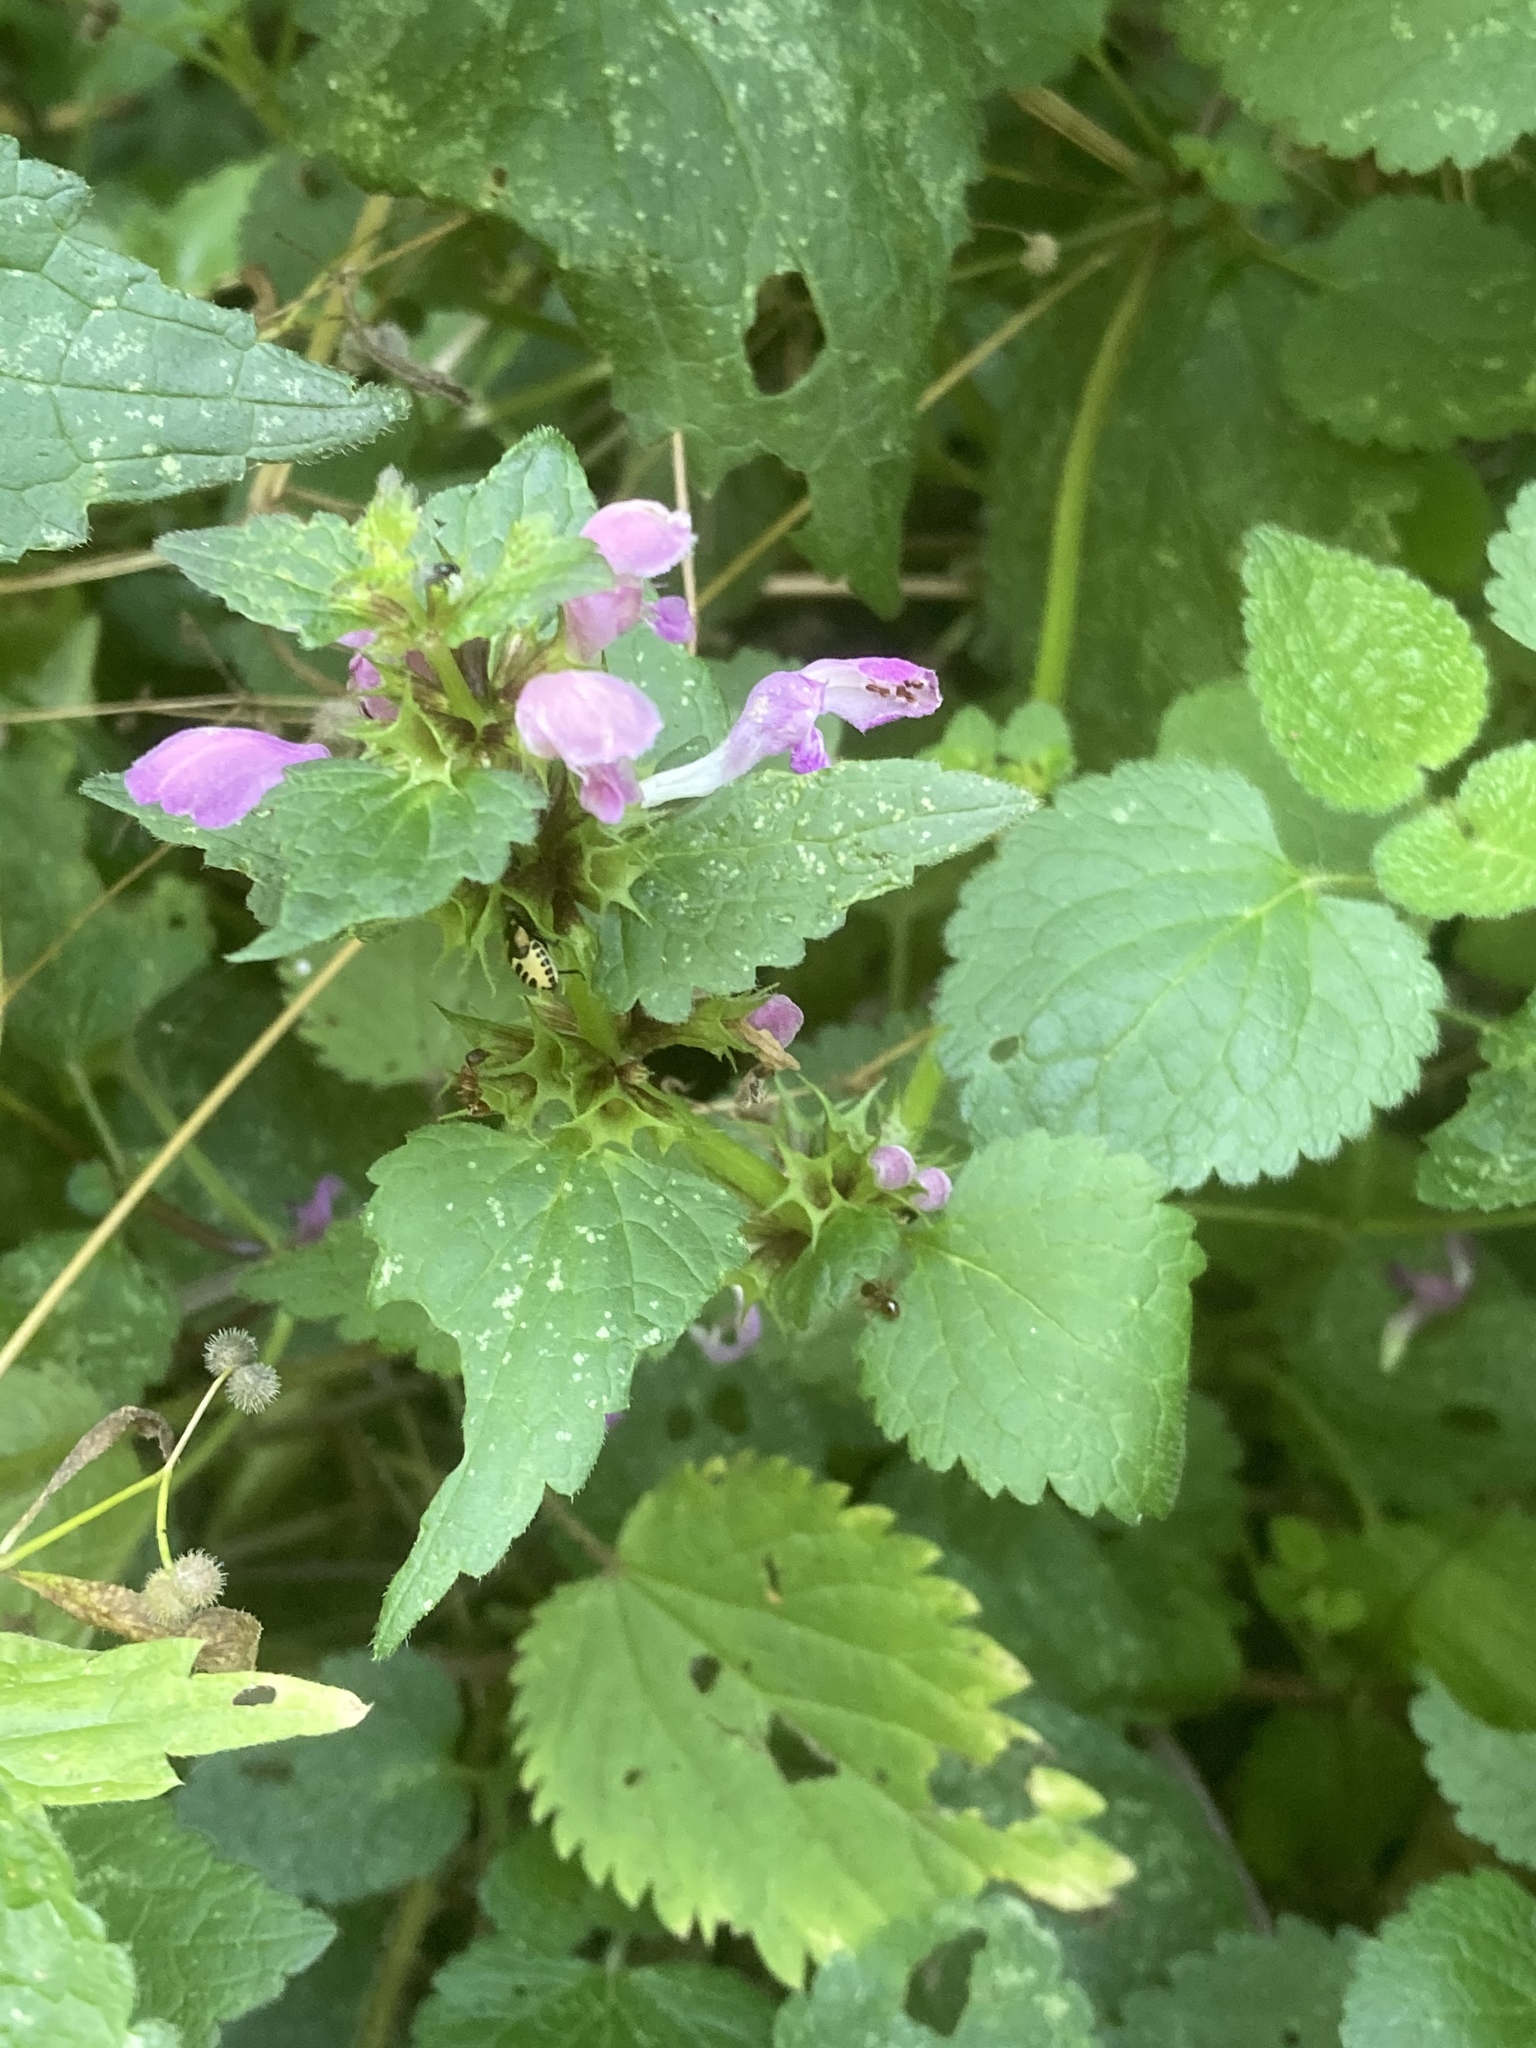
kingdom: Plantae
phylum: Tracheophyta
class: Magnoliopsida
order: Lamiales
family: Lamiaceae
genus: Lamium
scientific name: Lamium maculatum
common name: Spotted dead-nettle
